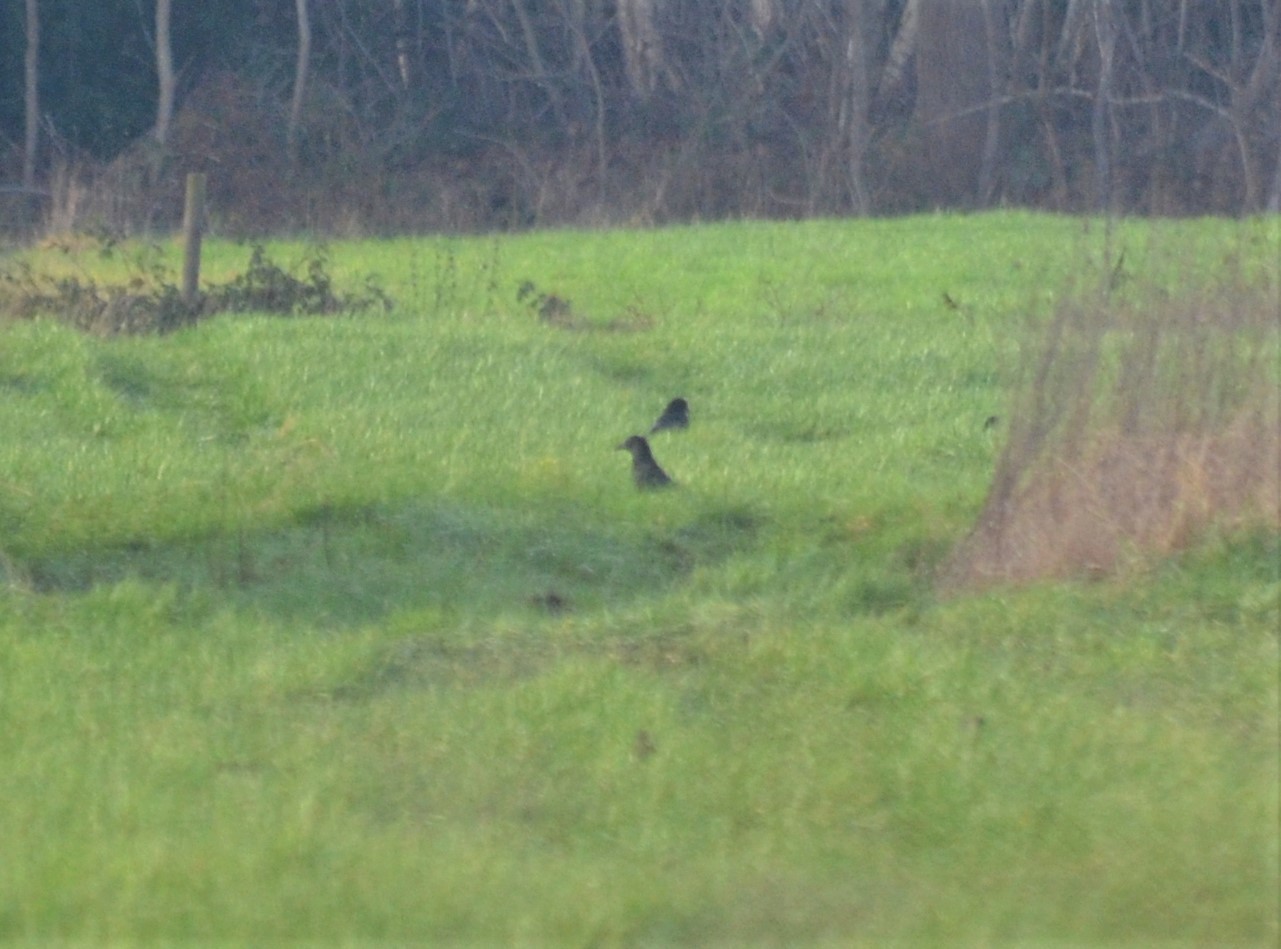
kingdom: Animalia
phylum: Chordata
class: Aves
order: Passeriformes
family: Corvidae
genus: Corvus
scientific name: Corvus corone
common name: Carrion crow
